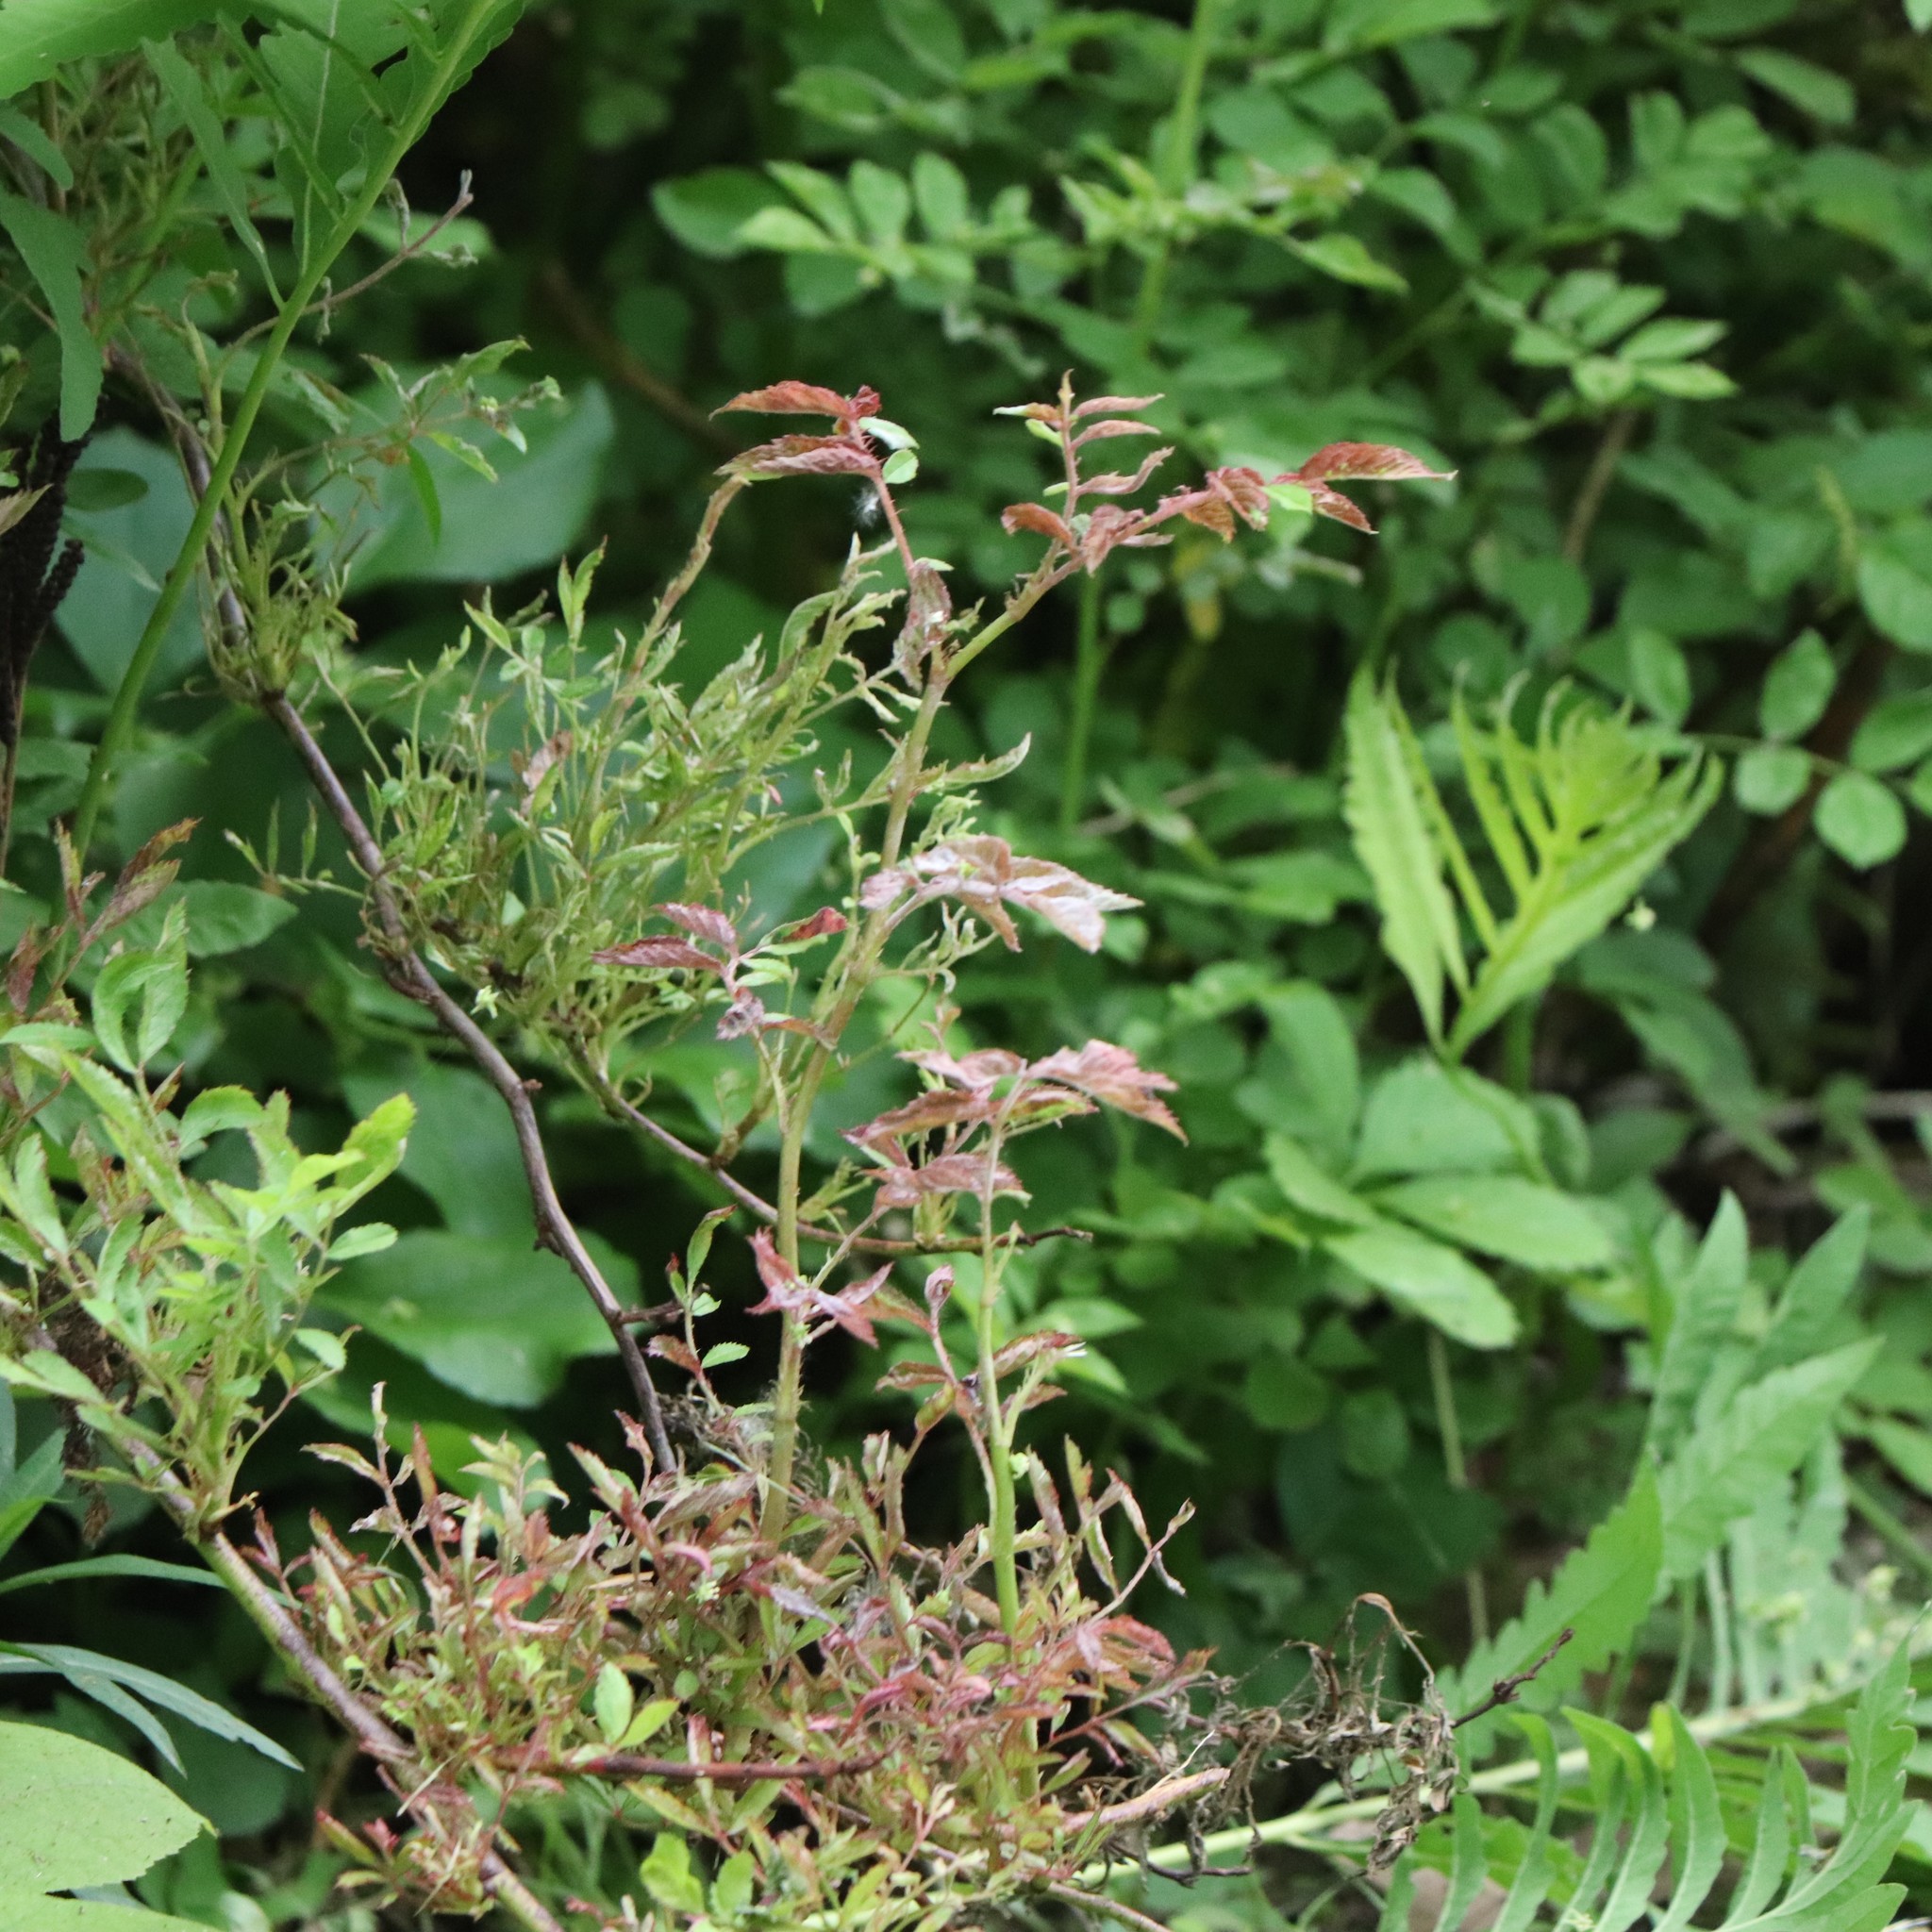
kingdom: Viruses
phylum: Negarnaviricota
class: Ellioviricetes
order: Bunyavirales
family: Fimoviridae
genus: Emaravirus
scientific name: Emaravirus rosae
